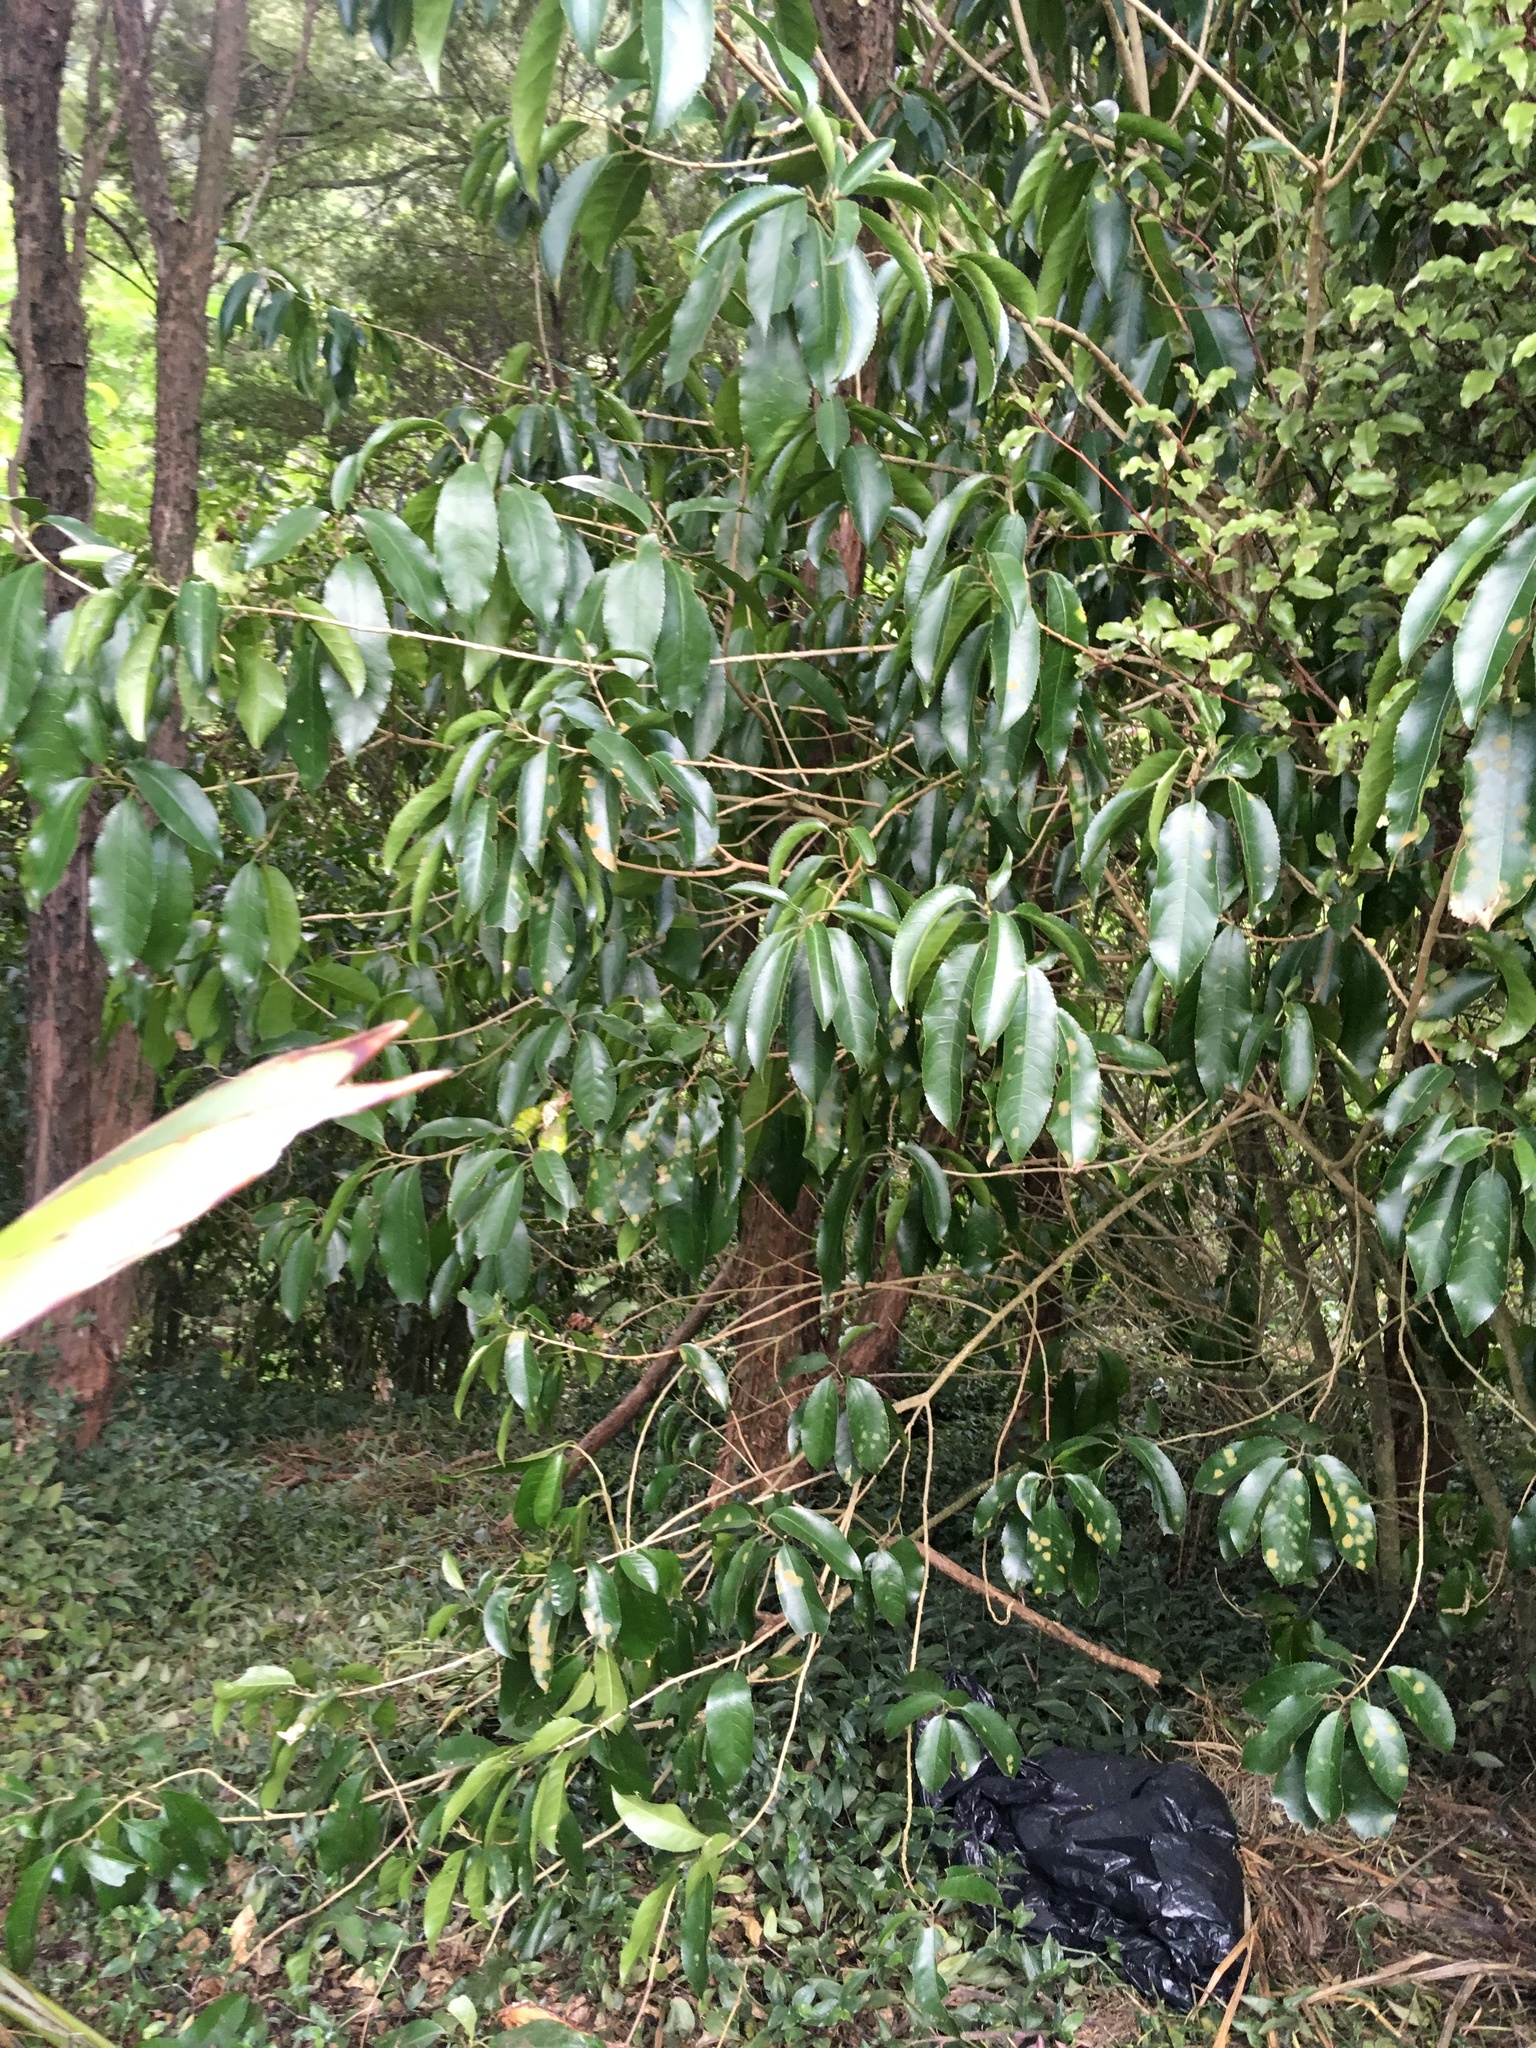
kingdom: Plantae
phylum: Tracheophyta
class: Magnoliopsida
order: Malpighiales
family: Violaceae
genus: Melicytus
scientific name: Melicytus ramiflorus
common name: Mahoe
